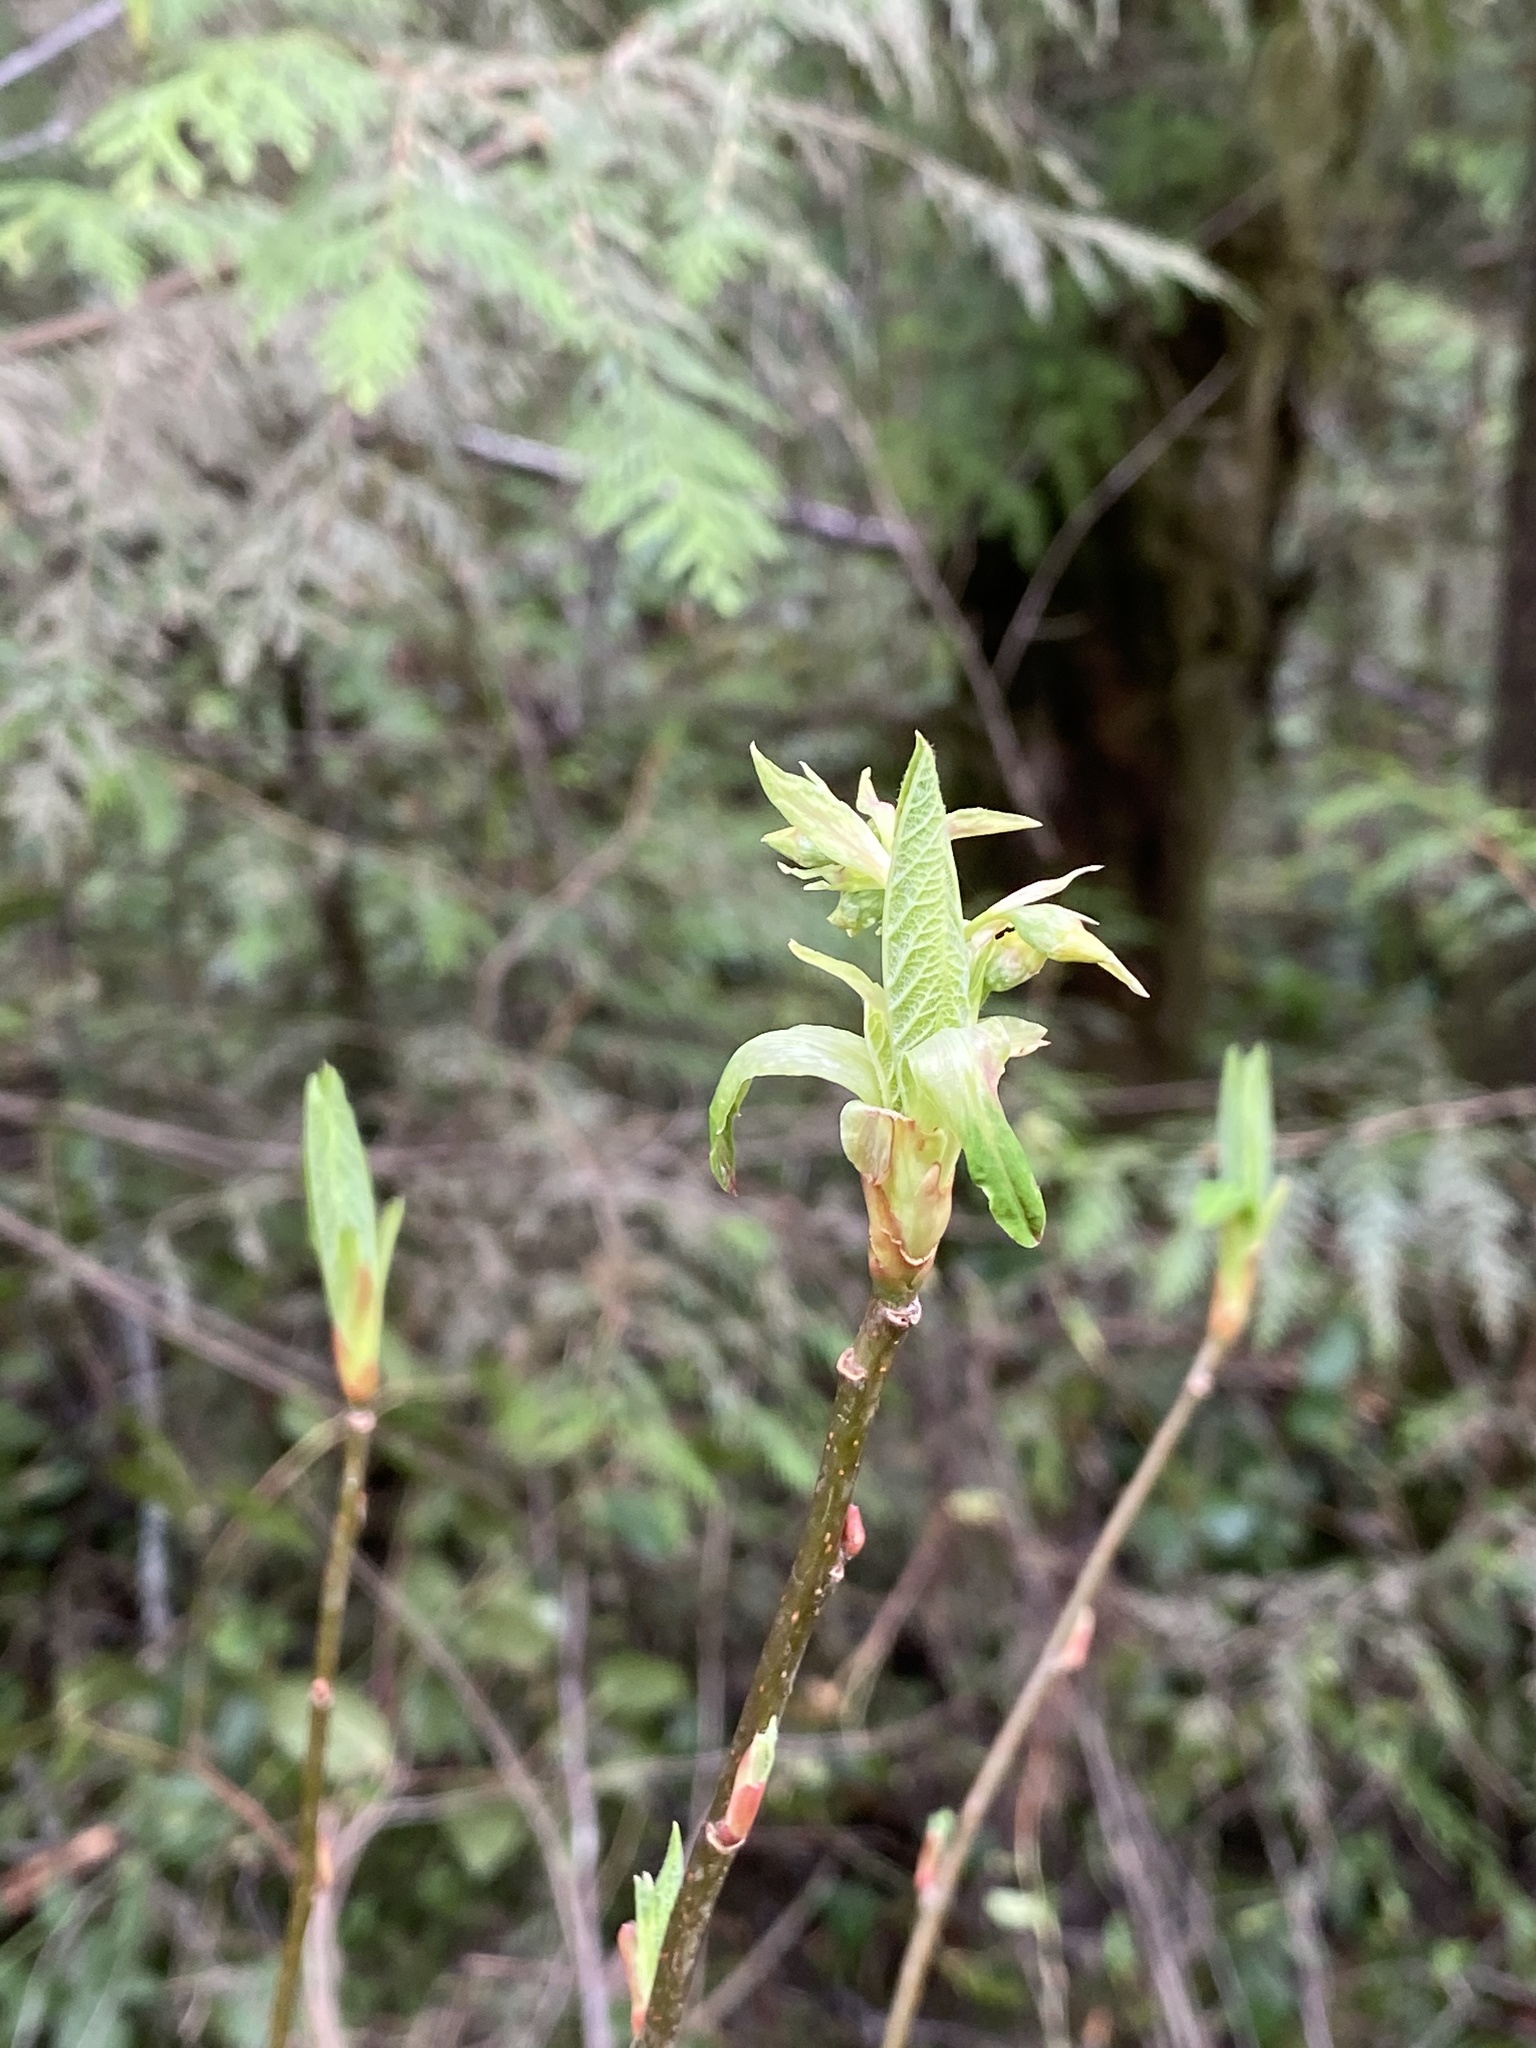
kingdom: Plantae
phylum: Tracheophyta
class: Magnoliopsida
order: Rosales
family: Rosaceae
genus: Oemleria
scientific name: Oemleria cerasiformis
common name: Osoberry
